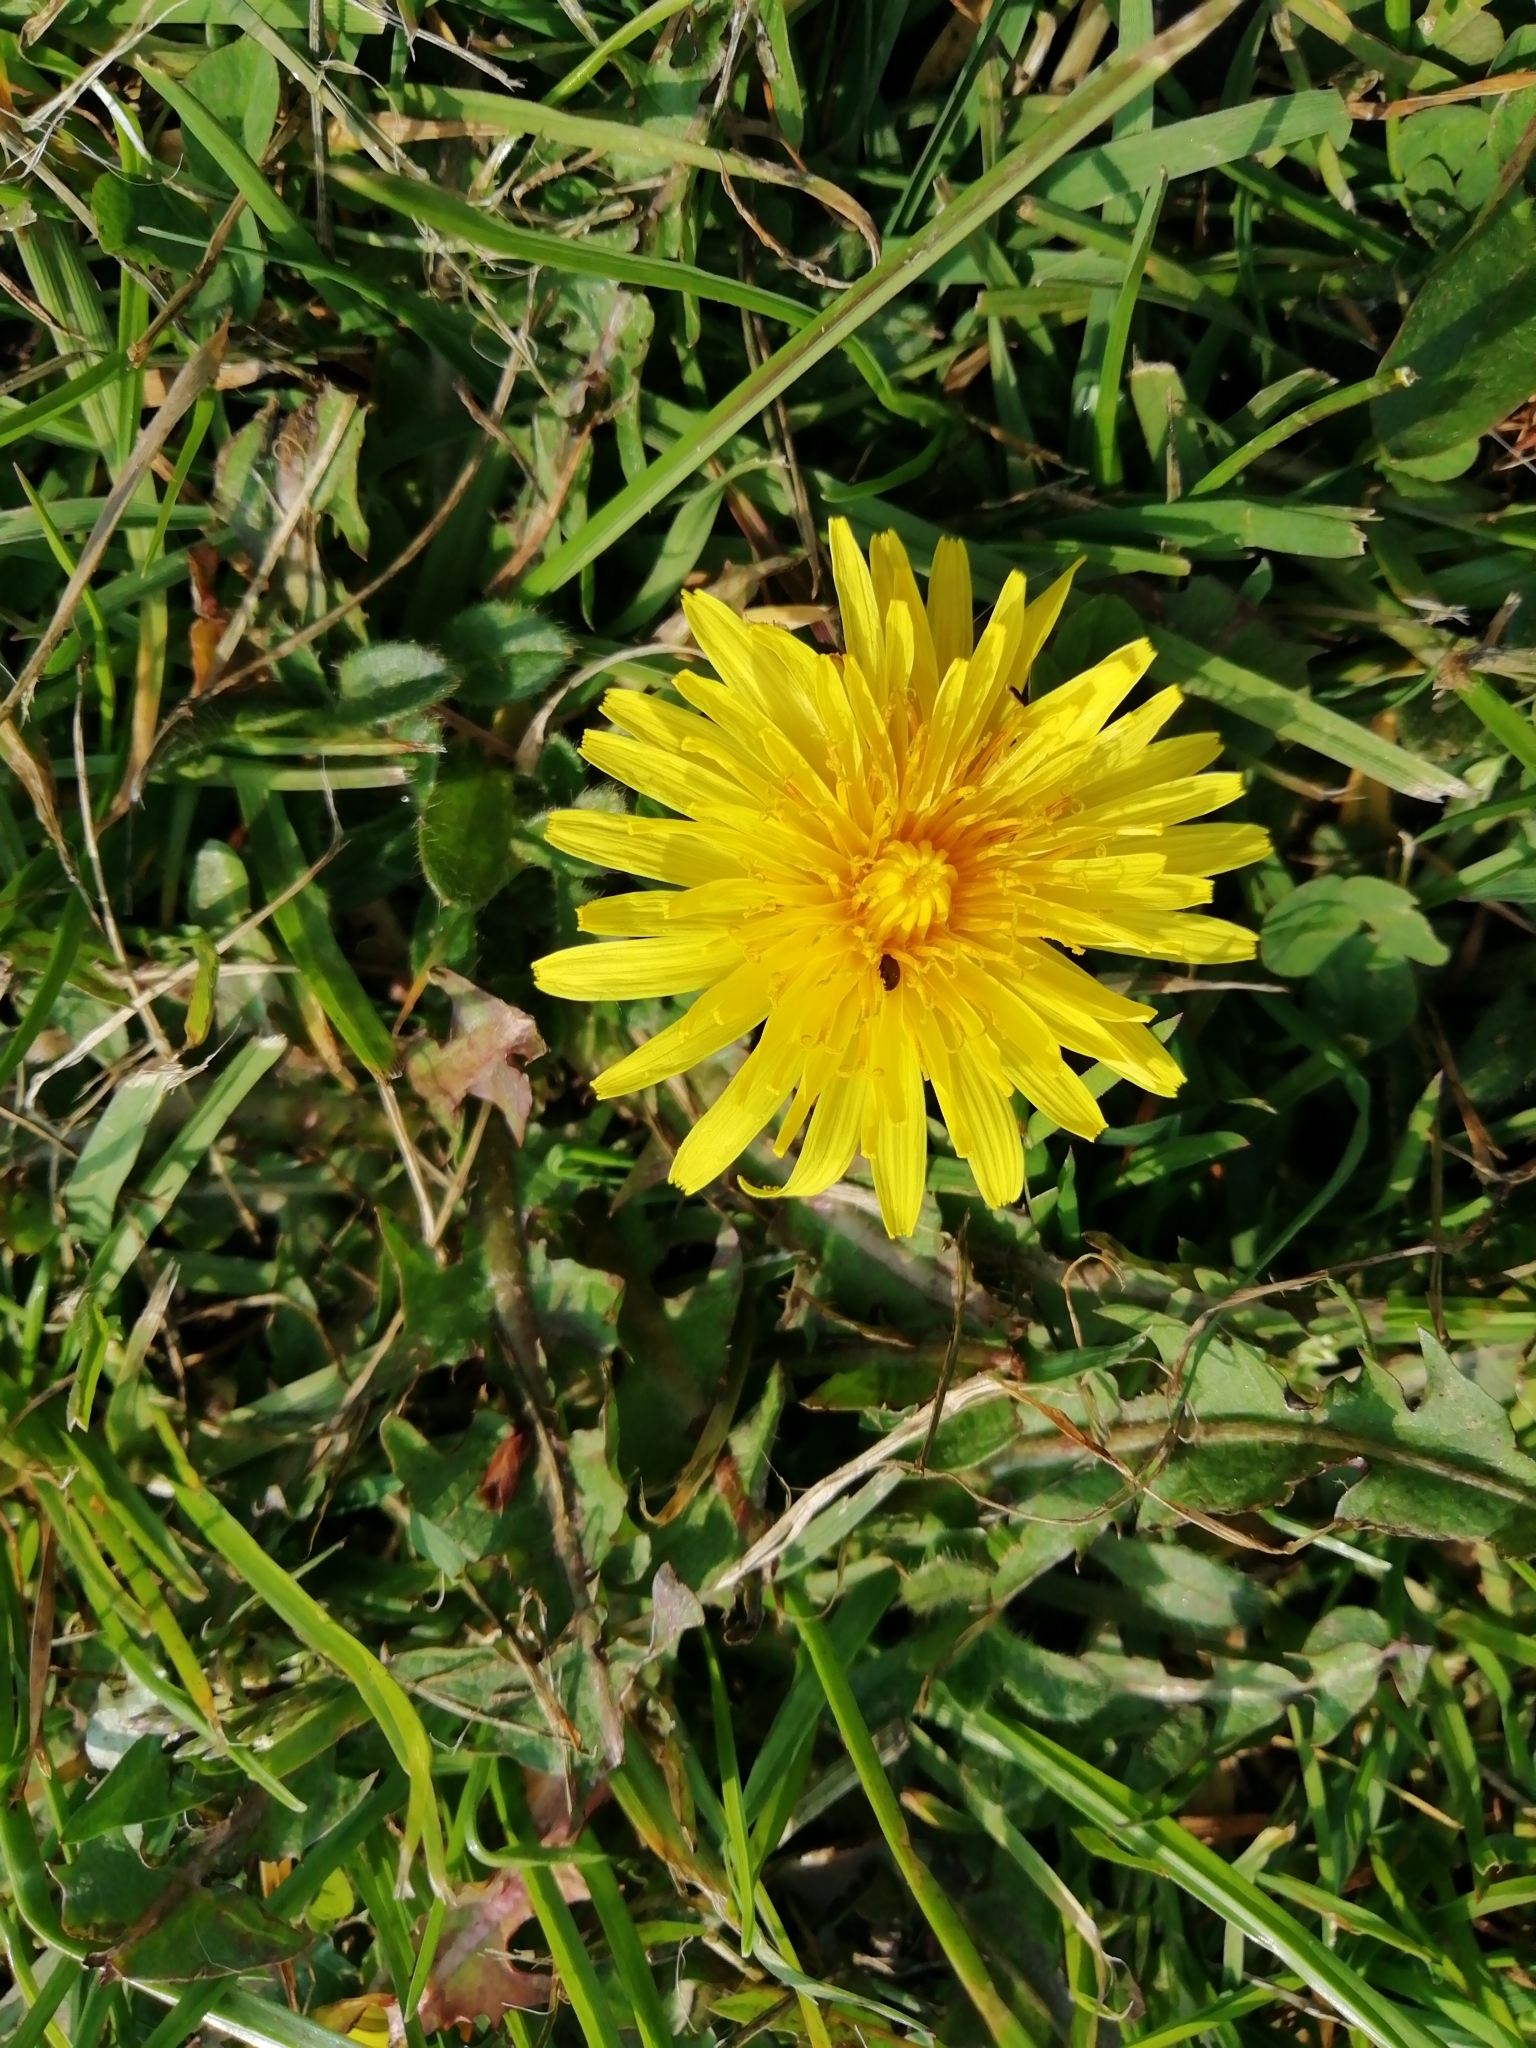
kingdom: Plantae
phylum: Tracheophyta
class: Magnoliopsida
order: Asterales
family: Asteraceae
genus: Taraxacum
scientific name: Taraxacum officinale
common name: Common dandelion
